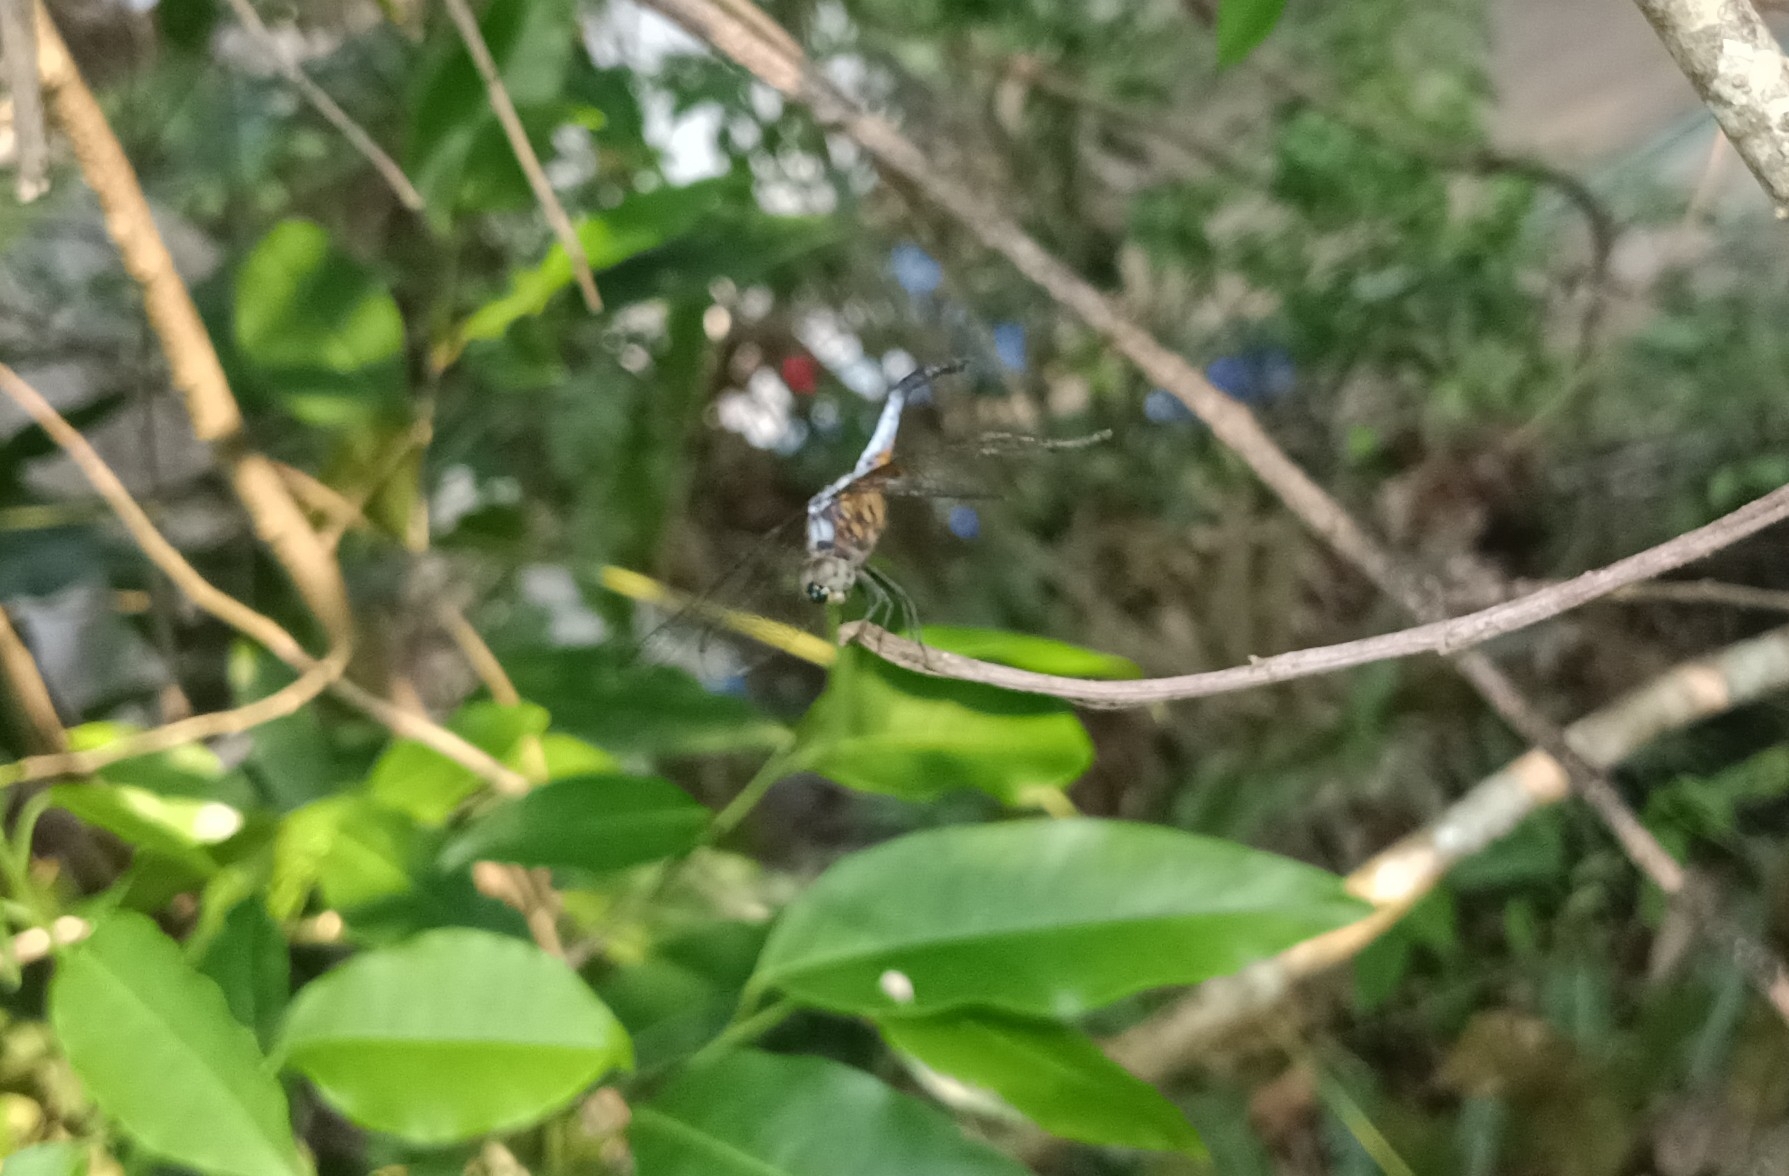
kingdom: Animalia
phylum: Arthropoda
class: Insecta
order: Odonata
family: Libellulidae
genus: Brachydiplax
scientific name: Brachydiplax chalybea
